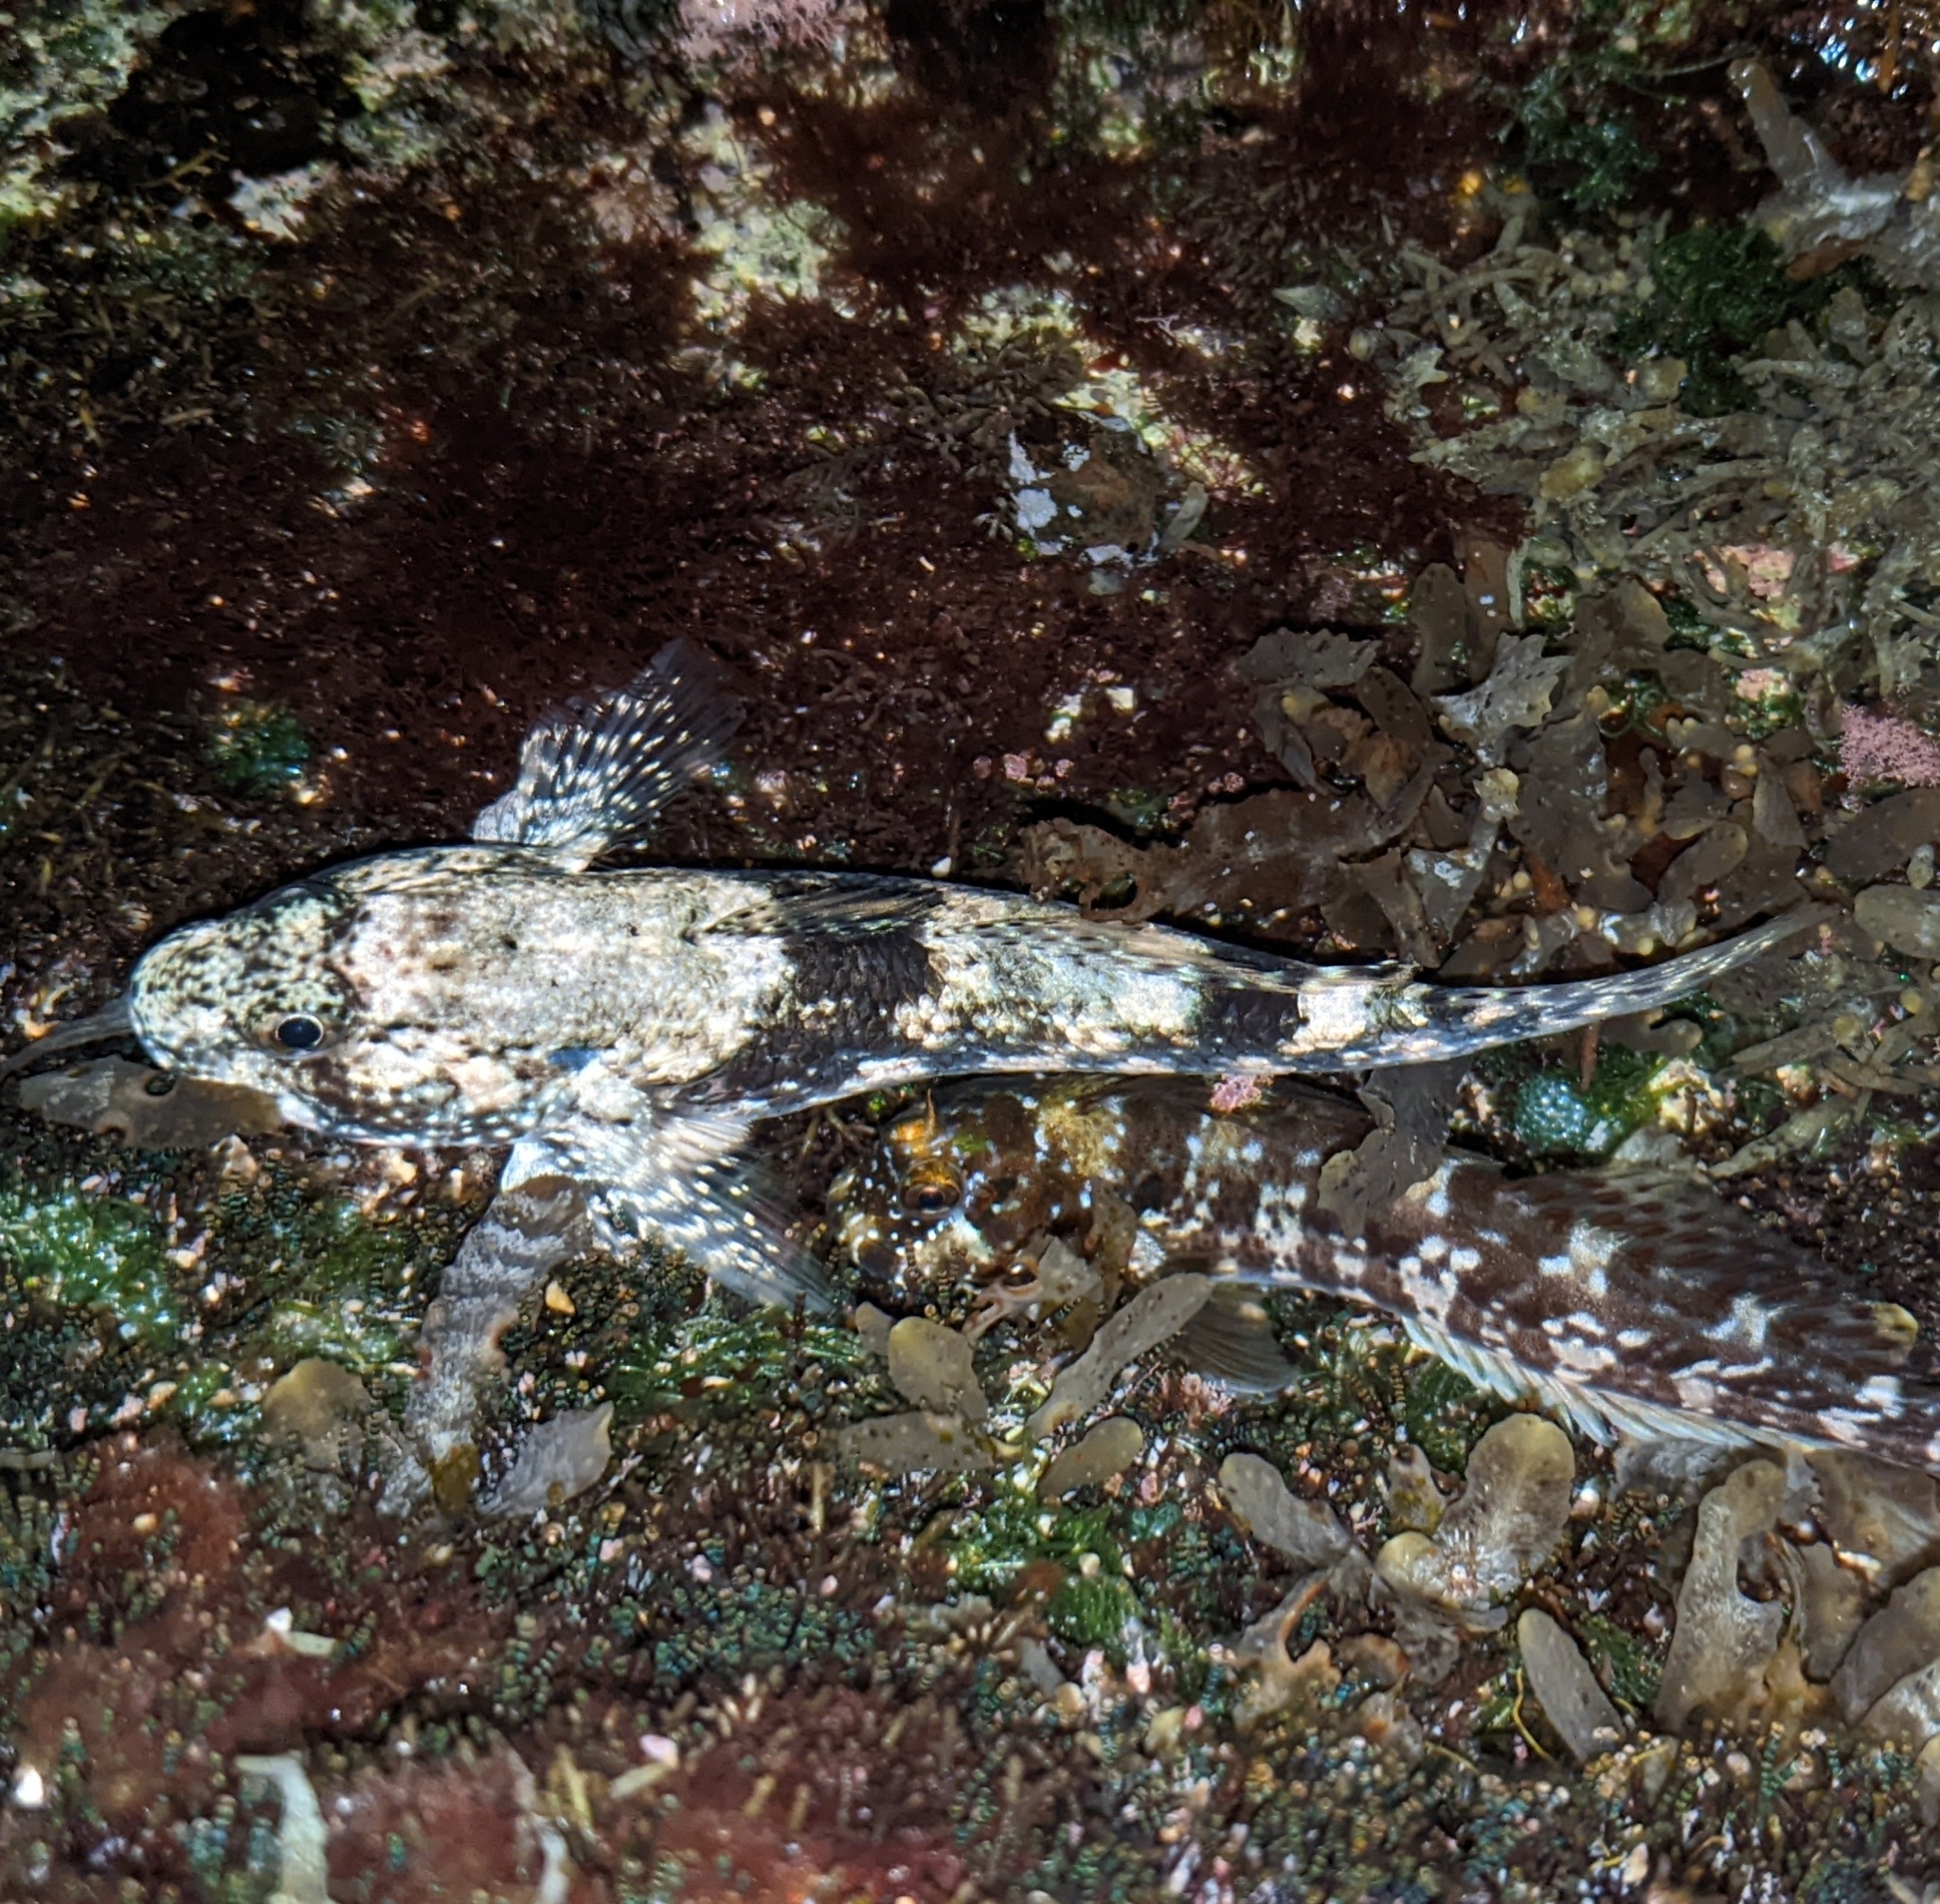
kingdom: Animalia
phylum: Chordata
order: Perciformes
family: Gobiidae
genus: Bathygobius
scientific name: Bathygobius coalitus
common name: Whitespotted goby
